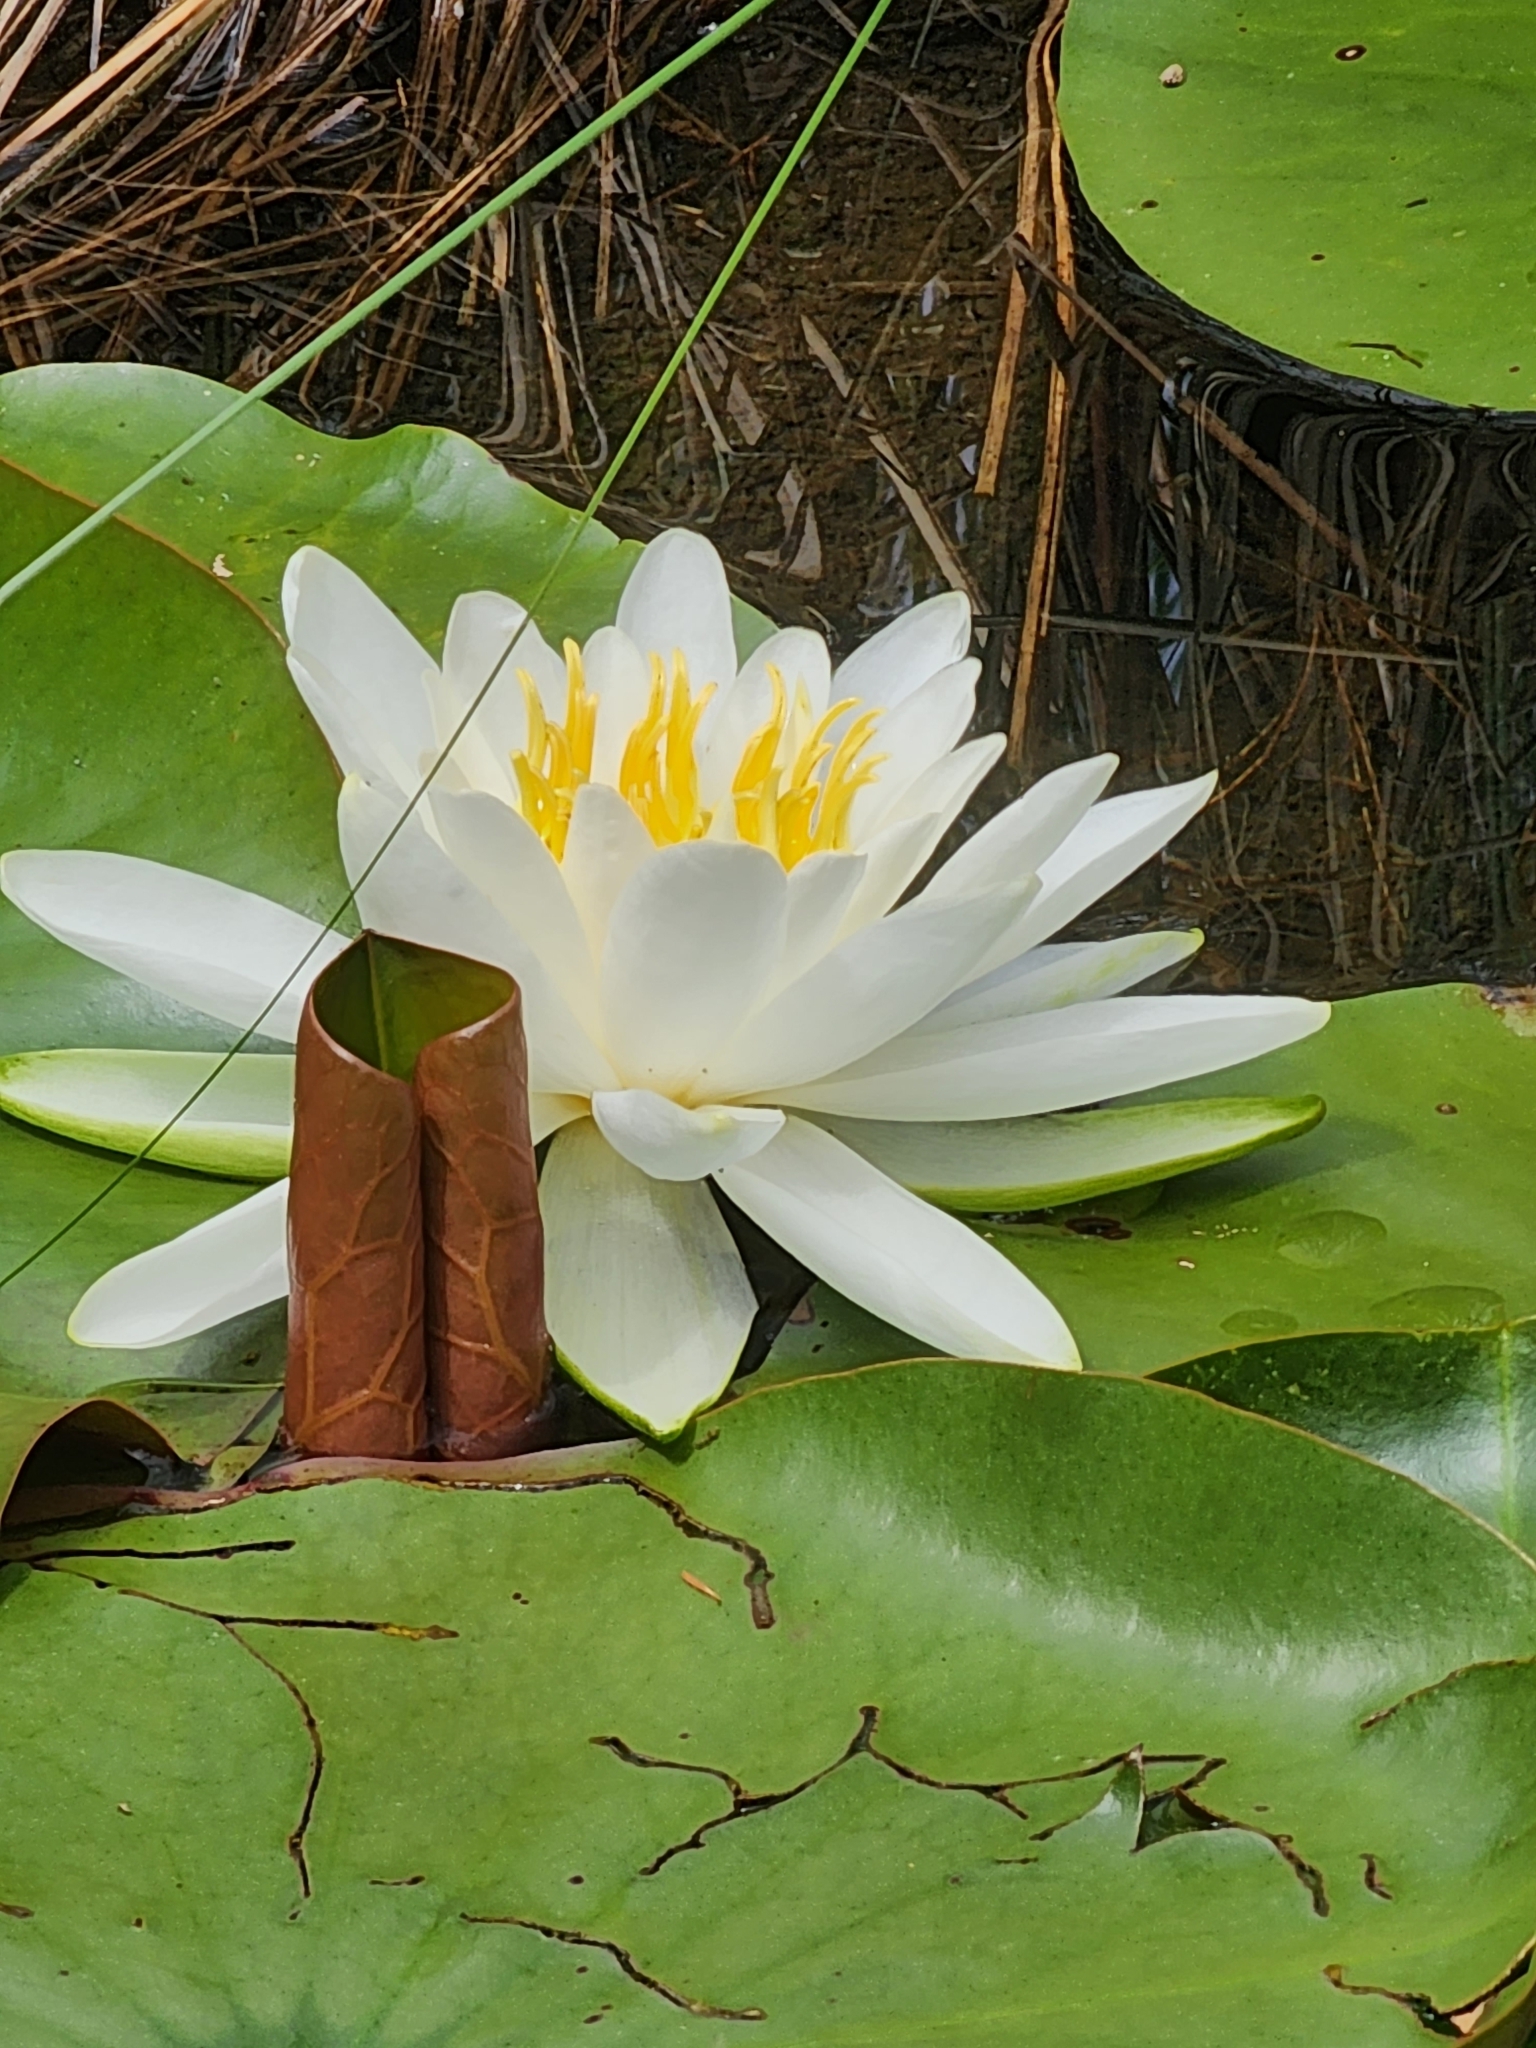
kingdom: Plantae
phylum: Tracheophyta
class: Magnoliopsida
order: Nymphaeales
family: Nymphaeaceae
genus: Nymphaea
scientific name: Nymphaea odorata
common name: Fragrant water-lily
